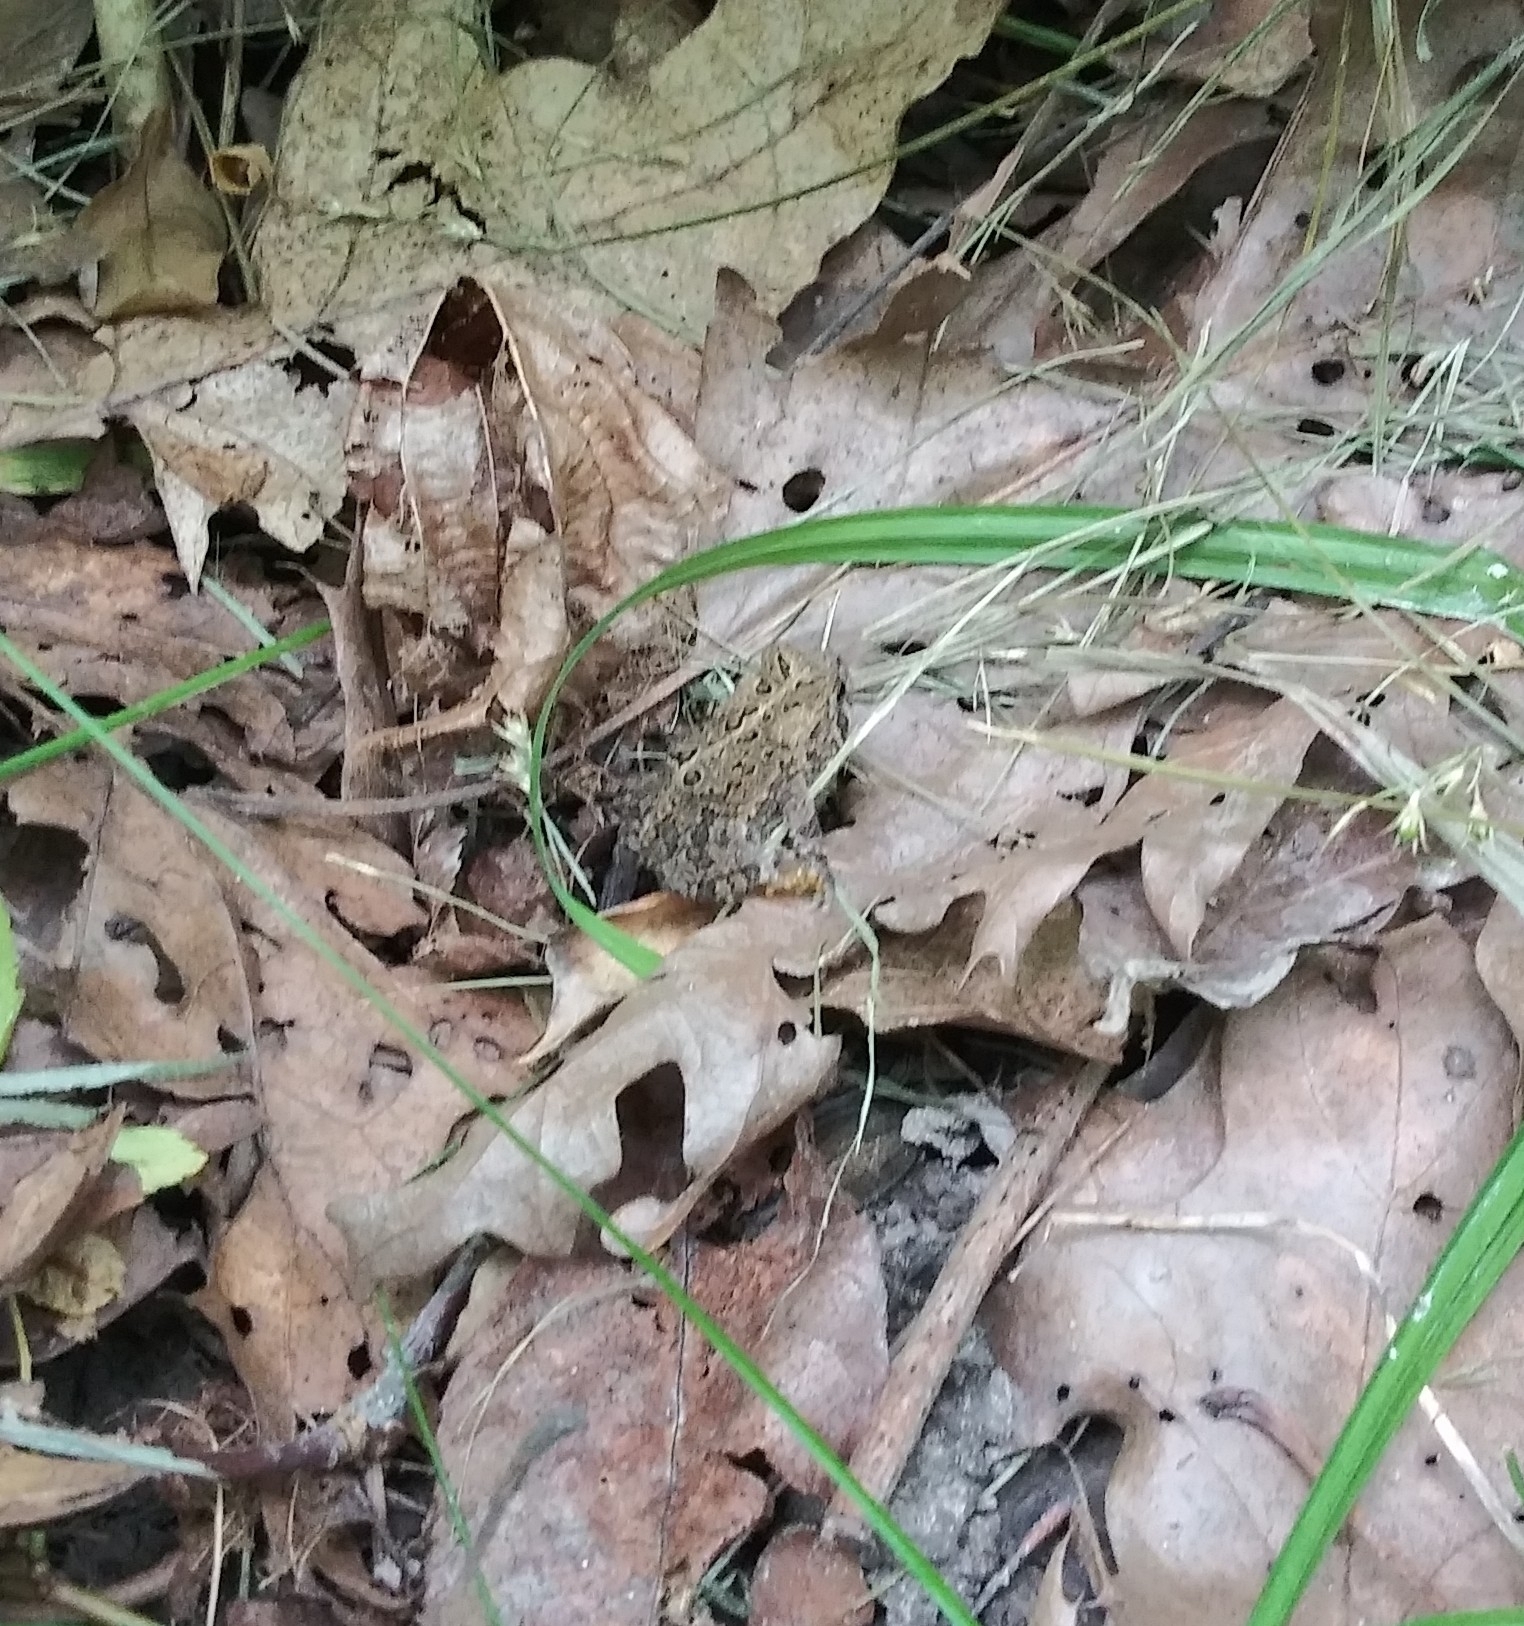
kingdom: Animalia
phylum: Chordata
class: Amphibia
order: Anura
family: Bufonidae
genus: Anaxyrus
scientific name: Anaxyrus americanus
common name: American toad
